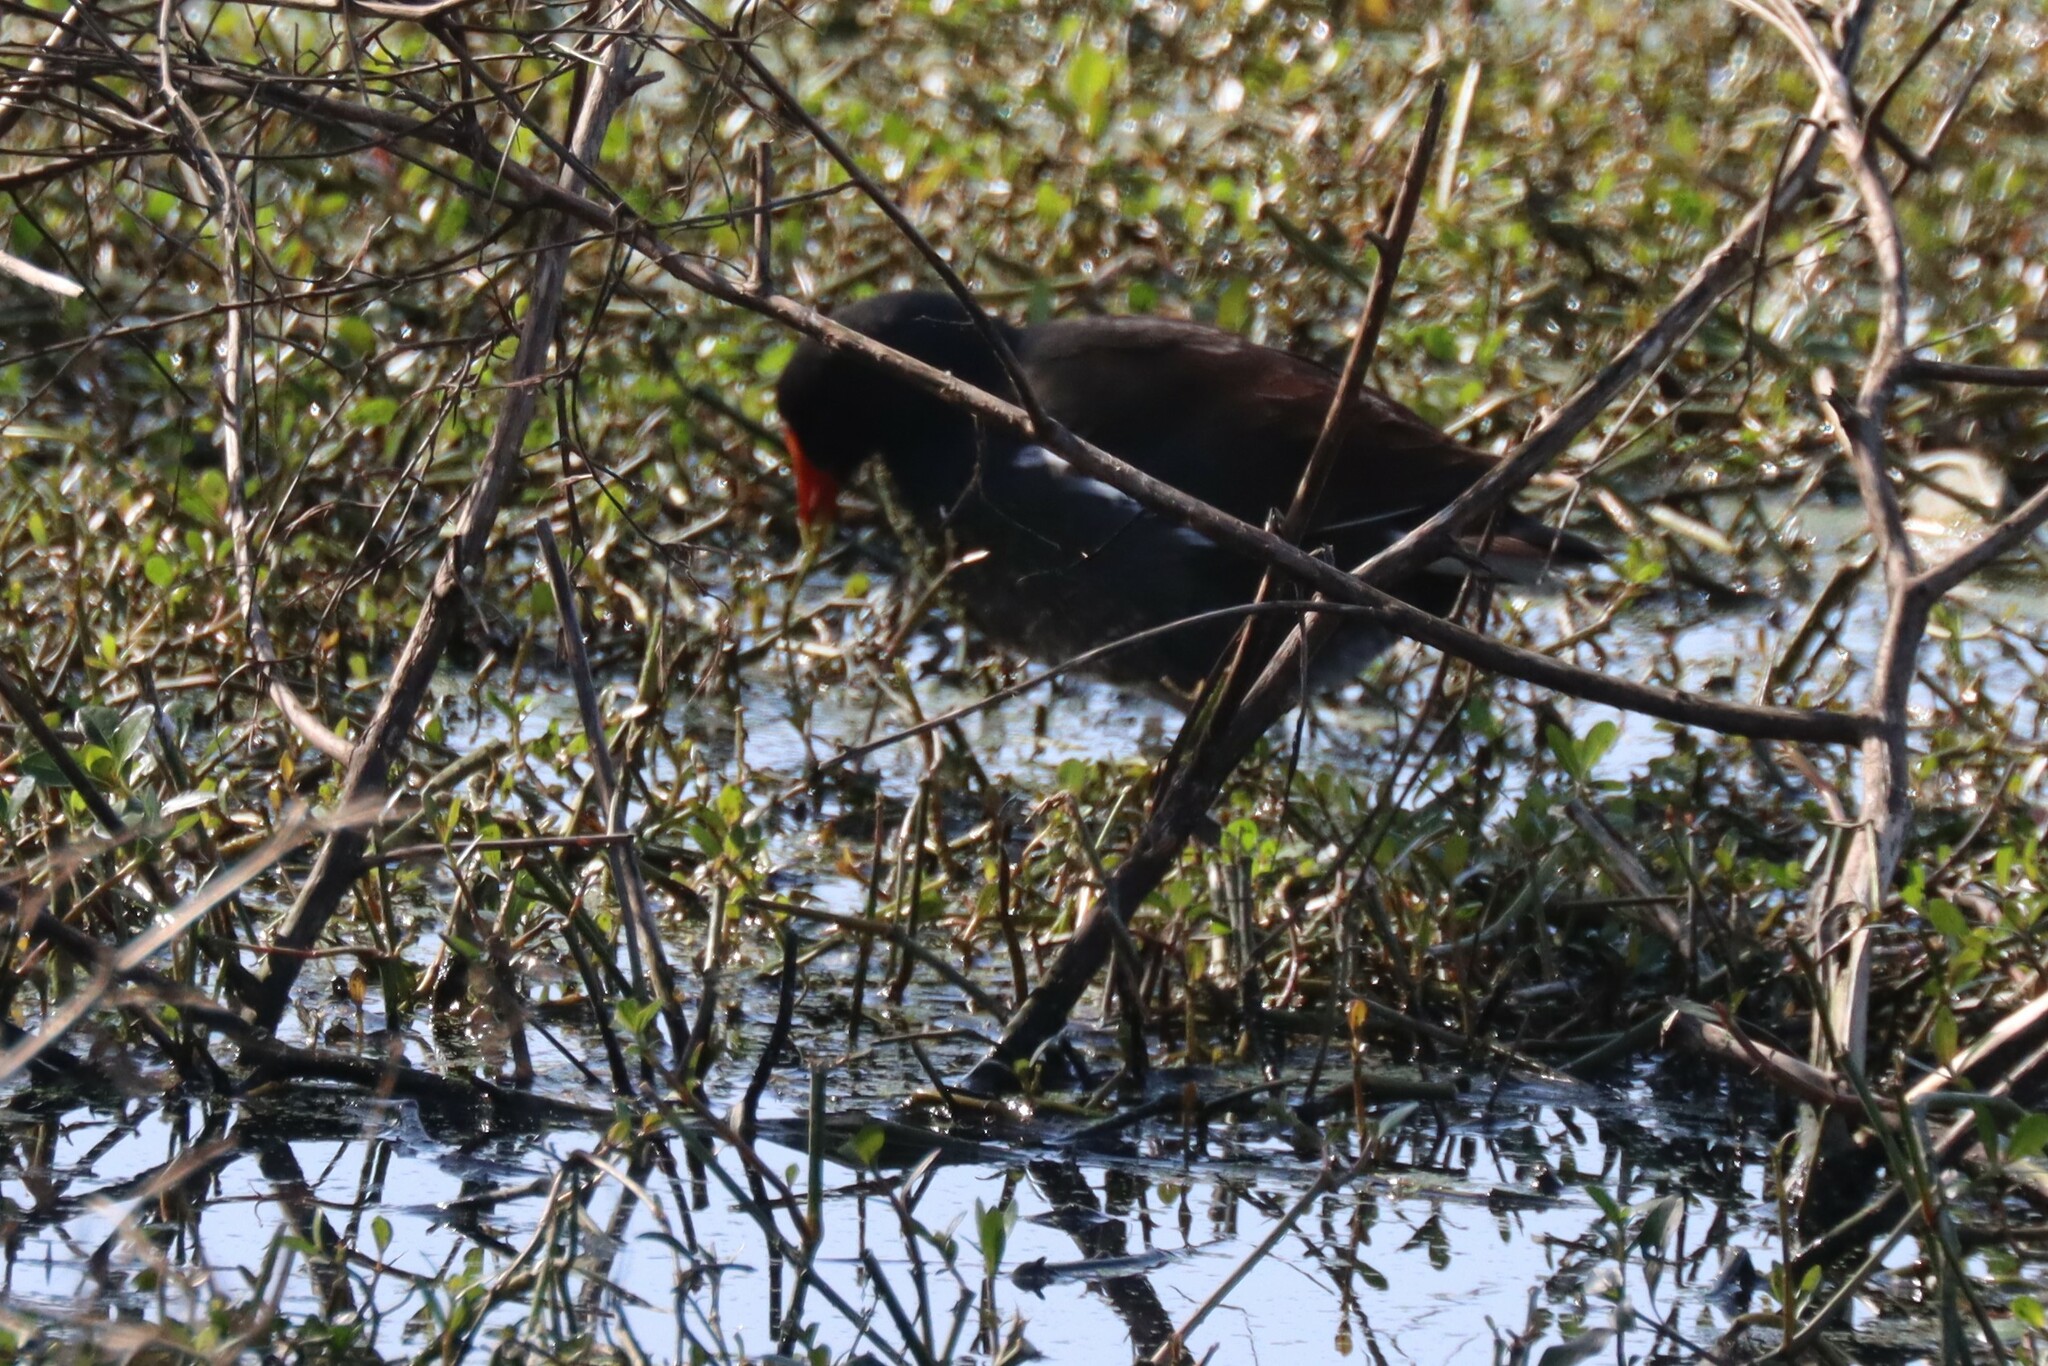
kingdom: Animalia
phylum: Chordata
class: Aves
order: Gruiformes
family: Rallidae
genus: Gallinula
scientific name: Gallinula chloropus
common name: Common moorhen
